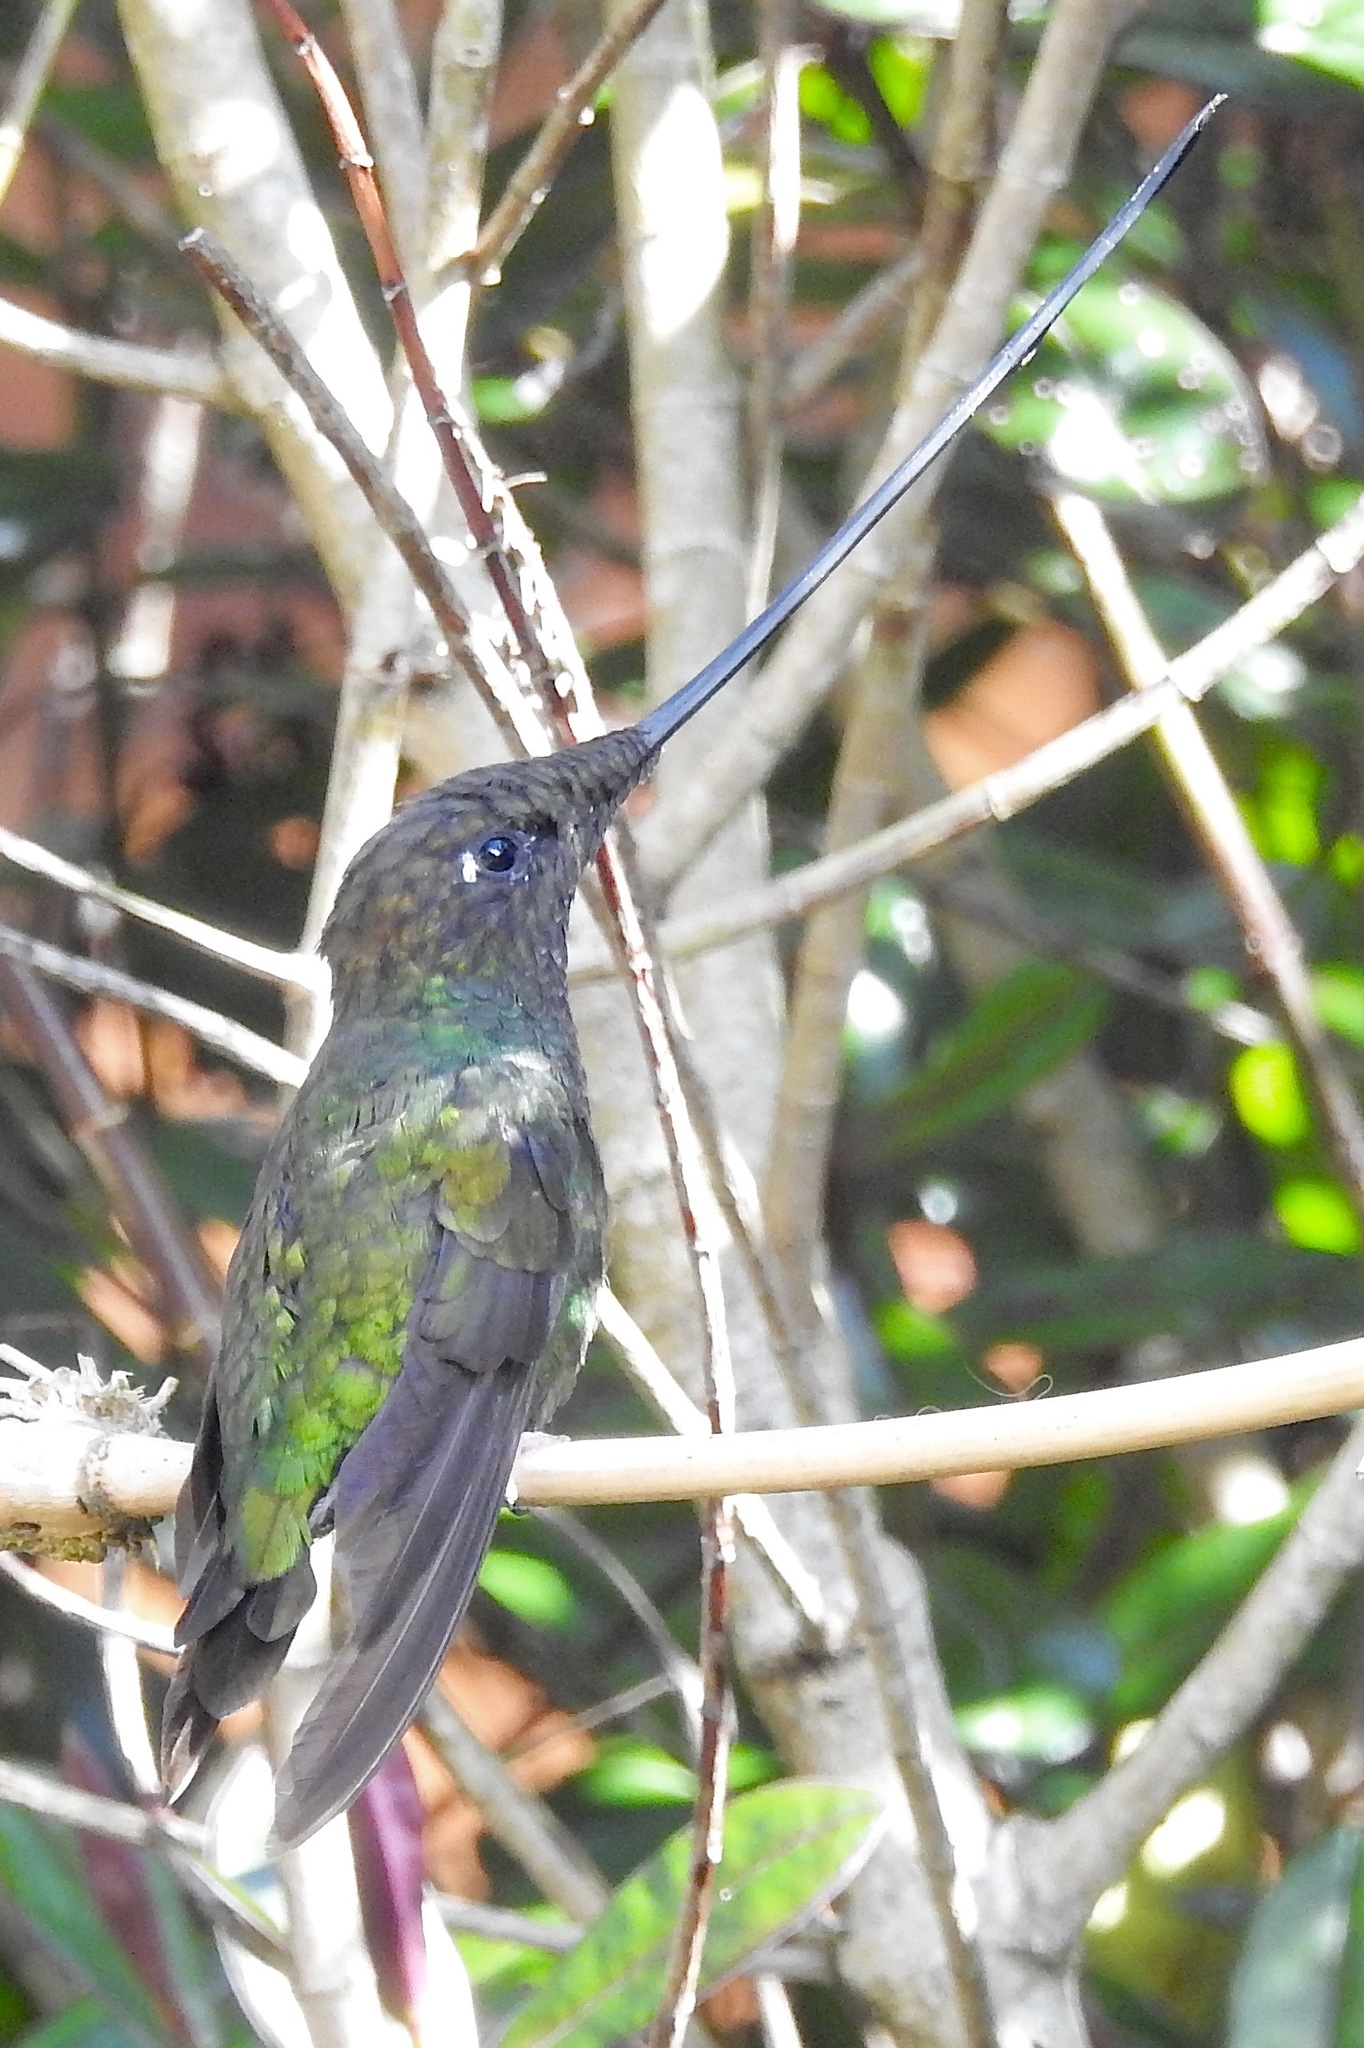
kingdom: Animalia
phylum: Chordata
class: Aves
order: Apodiformes
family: Trochilidae
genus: Ensifera
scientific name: Ensifera ensifera
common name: Sword-billed hummingbird
